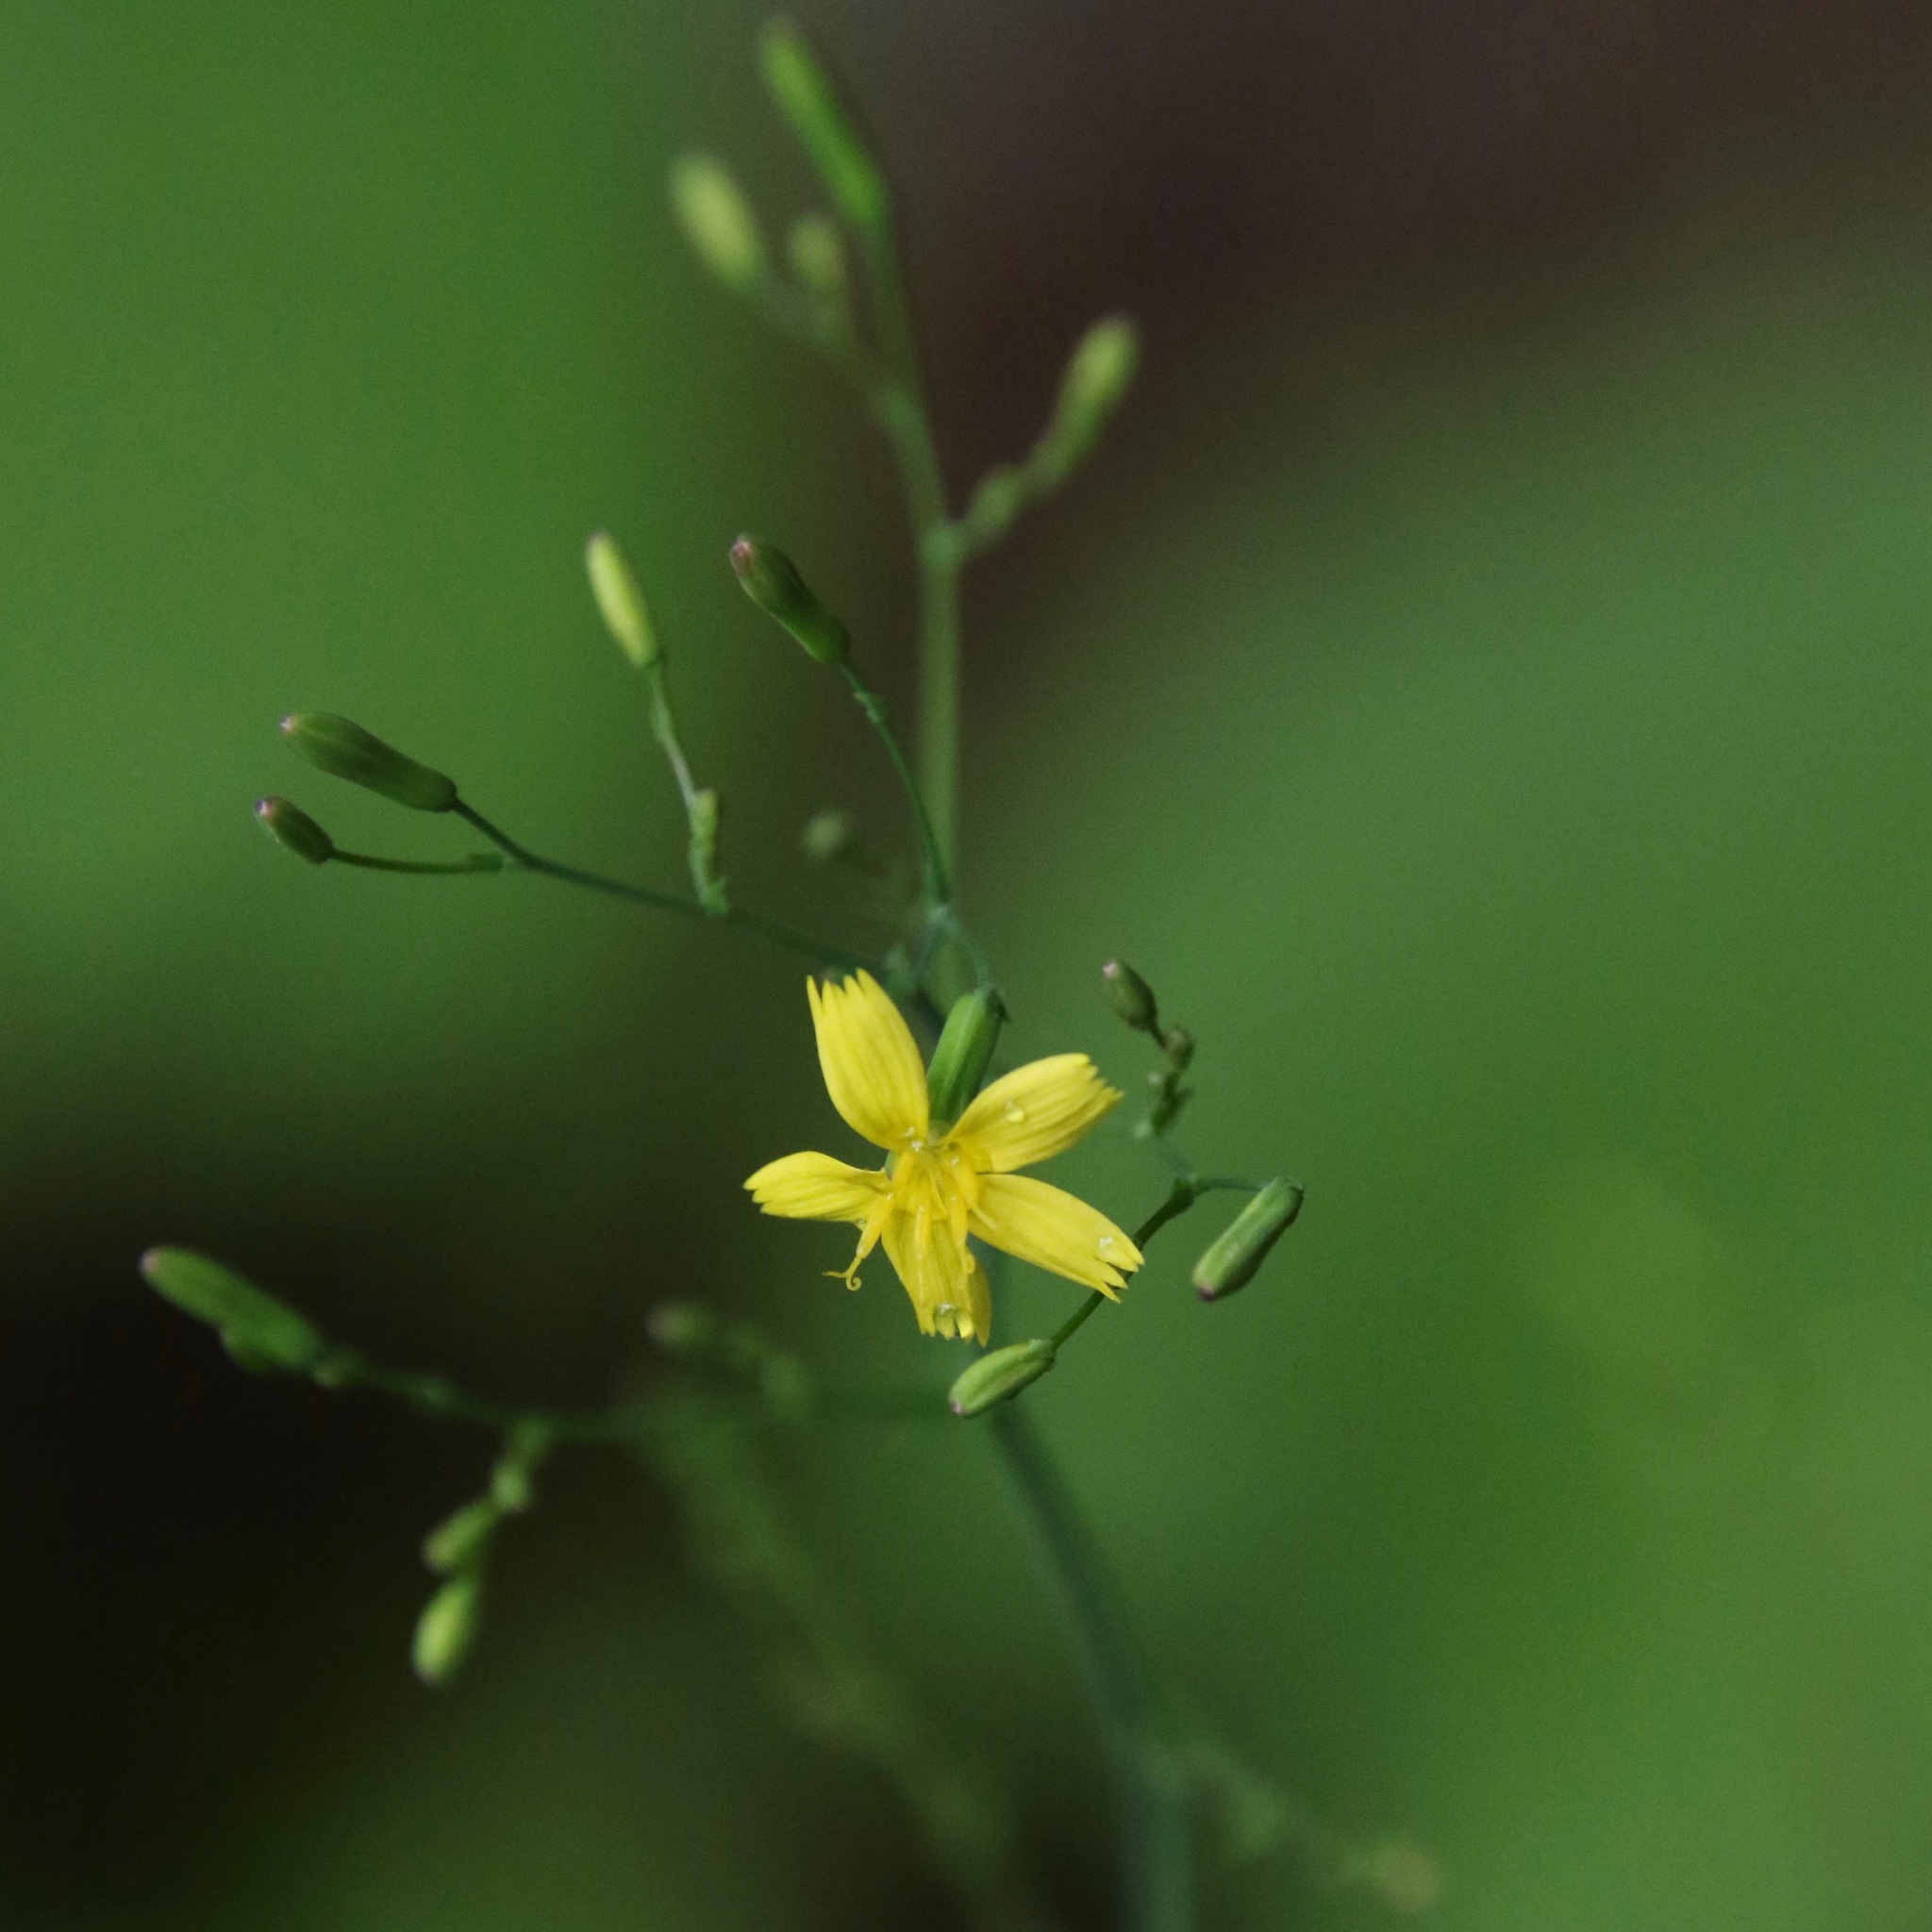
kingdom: Plantae
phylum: Tracheophyta
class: Magnoliopsida
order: Asterales
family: Asteraceae
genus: Mycelis
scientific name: Mycelis muralis
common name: Wall lettuce
